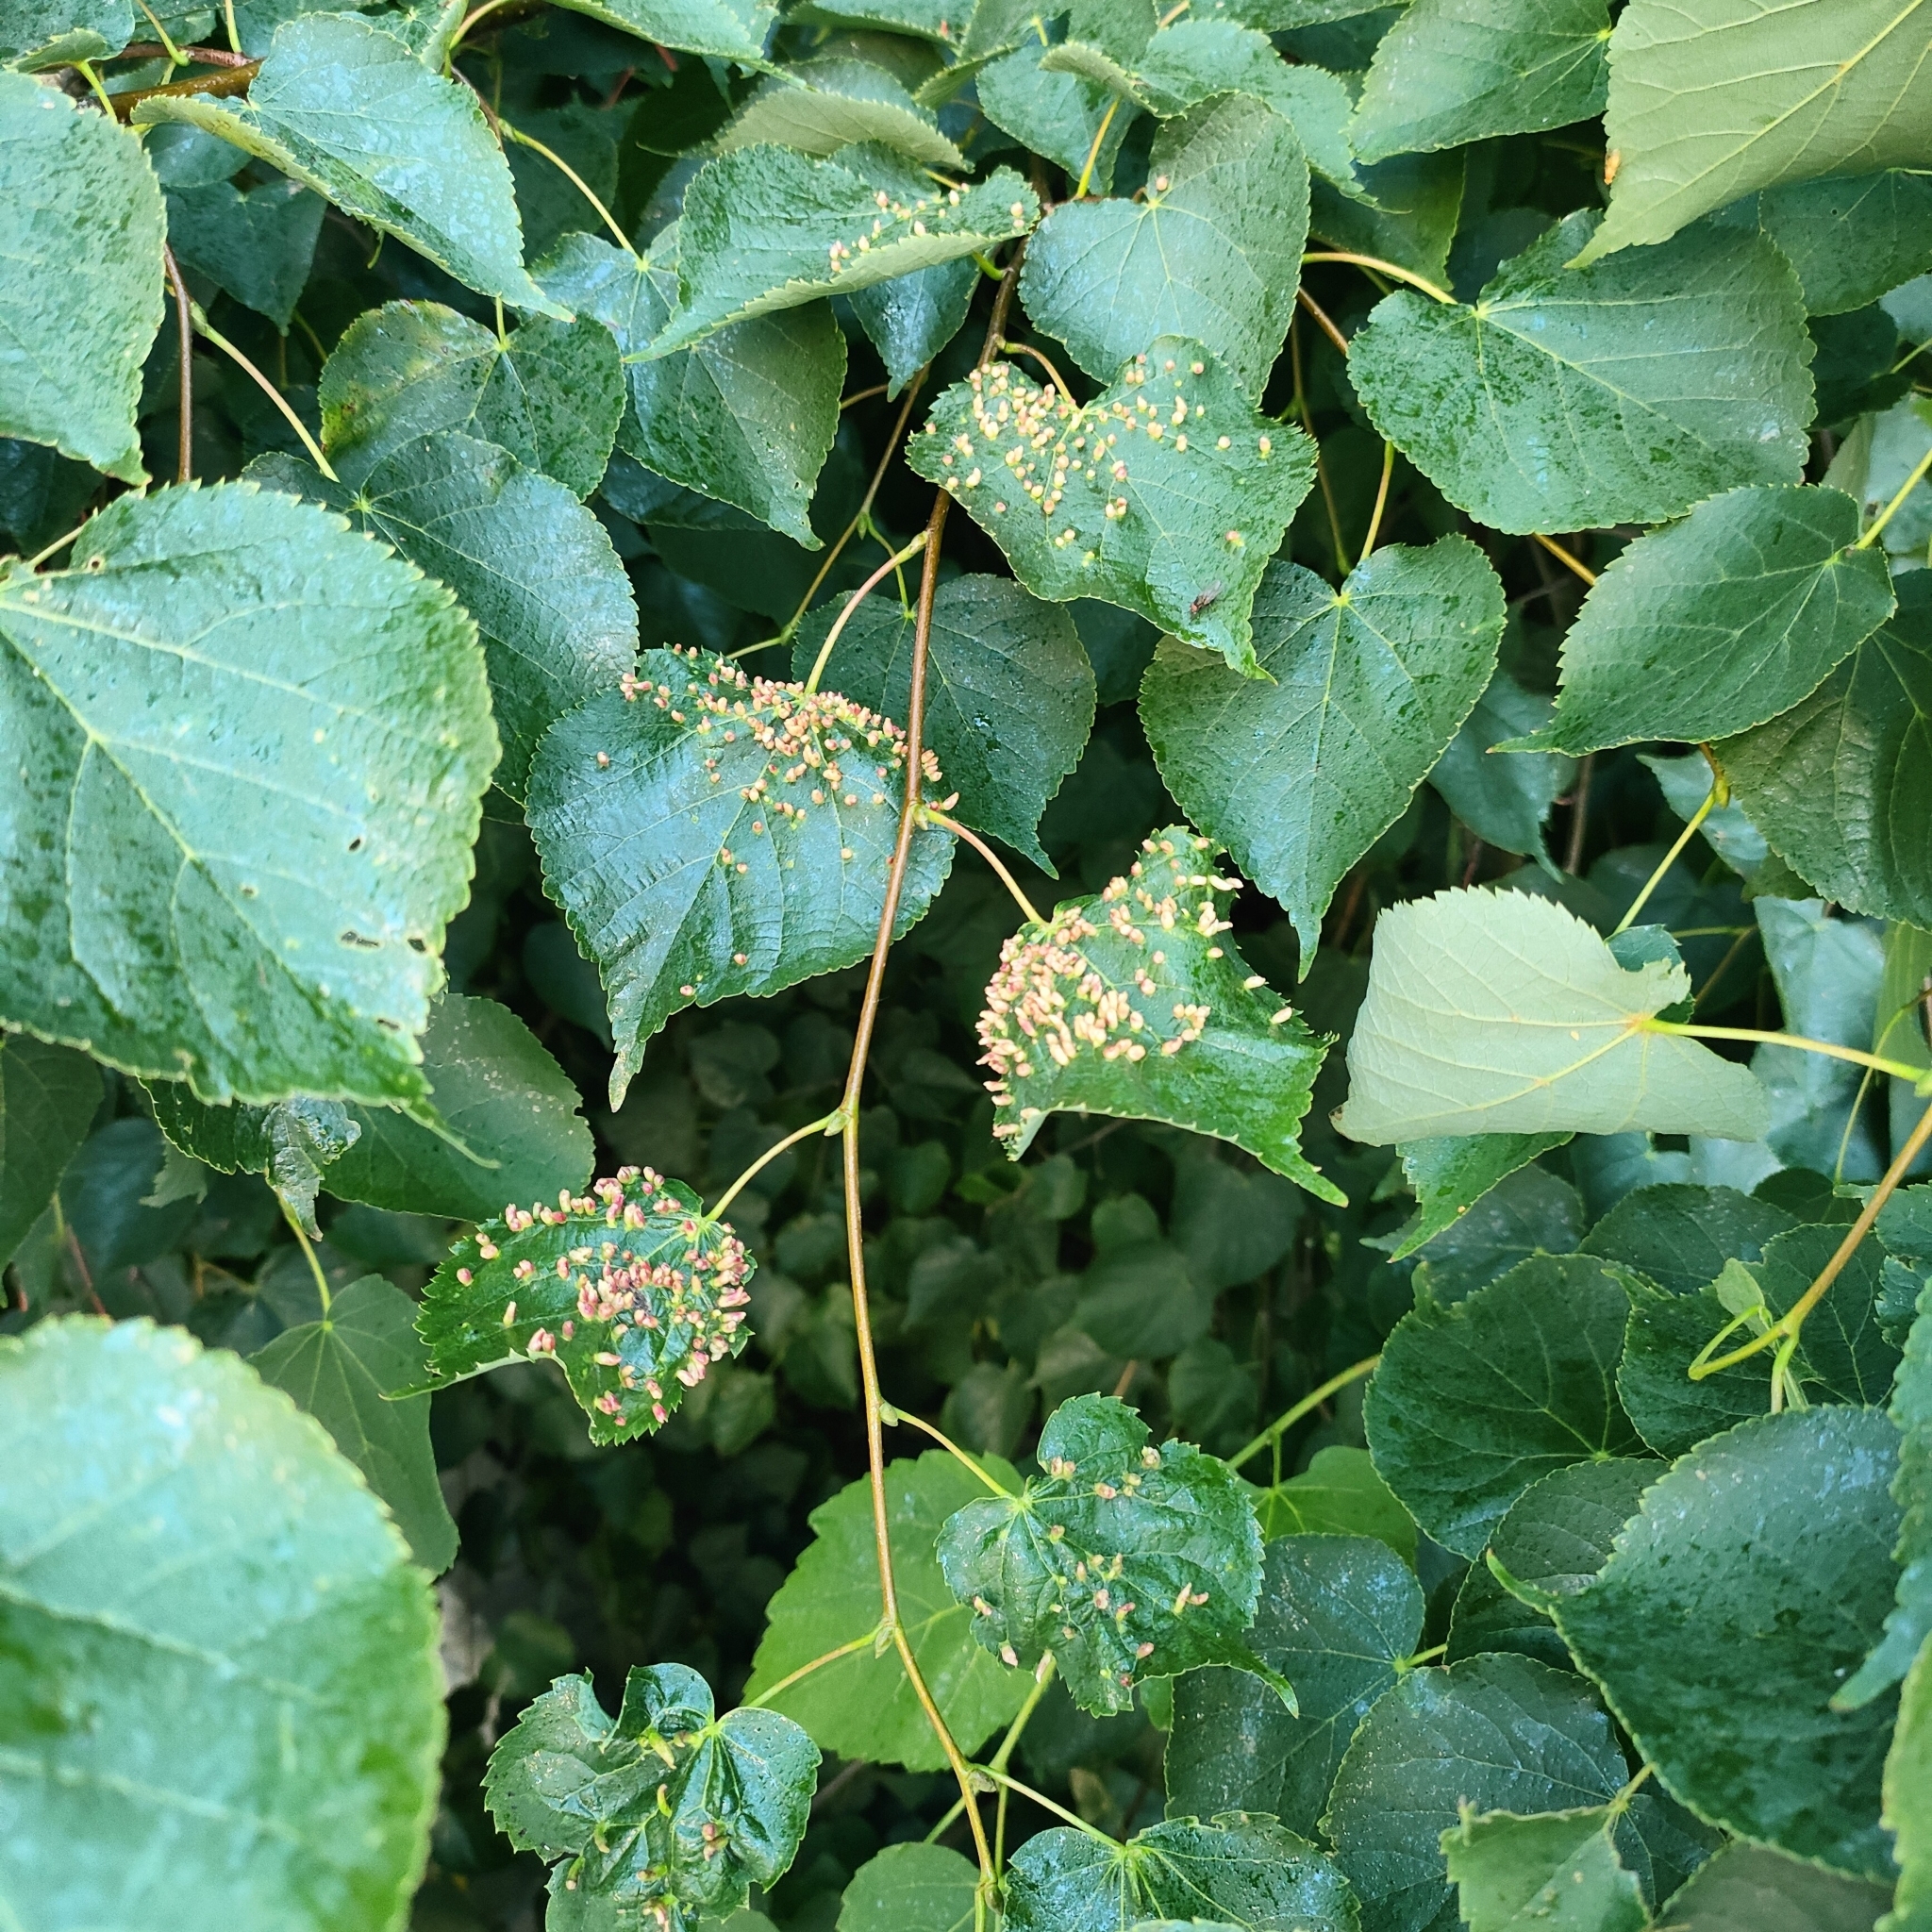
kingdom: Animalia
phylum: Arthropoda
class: Arachnida
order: Trombidiformes
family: Eriophyidae
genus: Eriophyes
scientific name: Eriophyes tiliae
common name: Red nail gall mite
